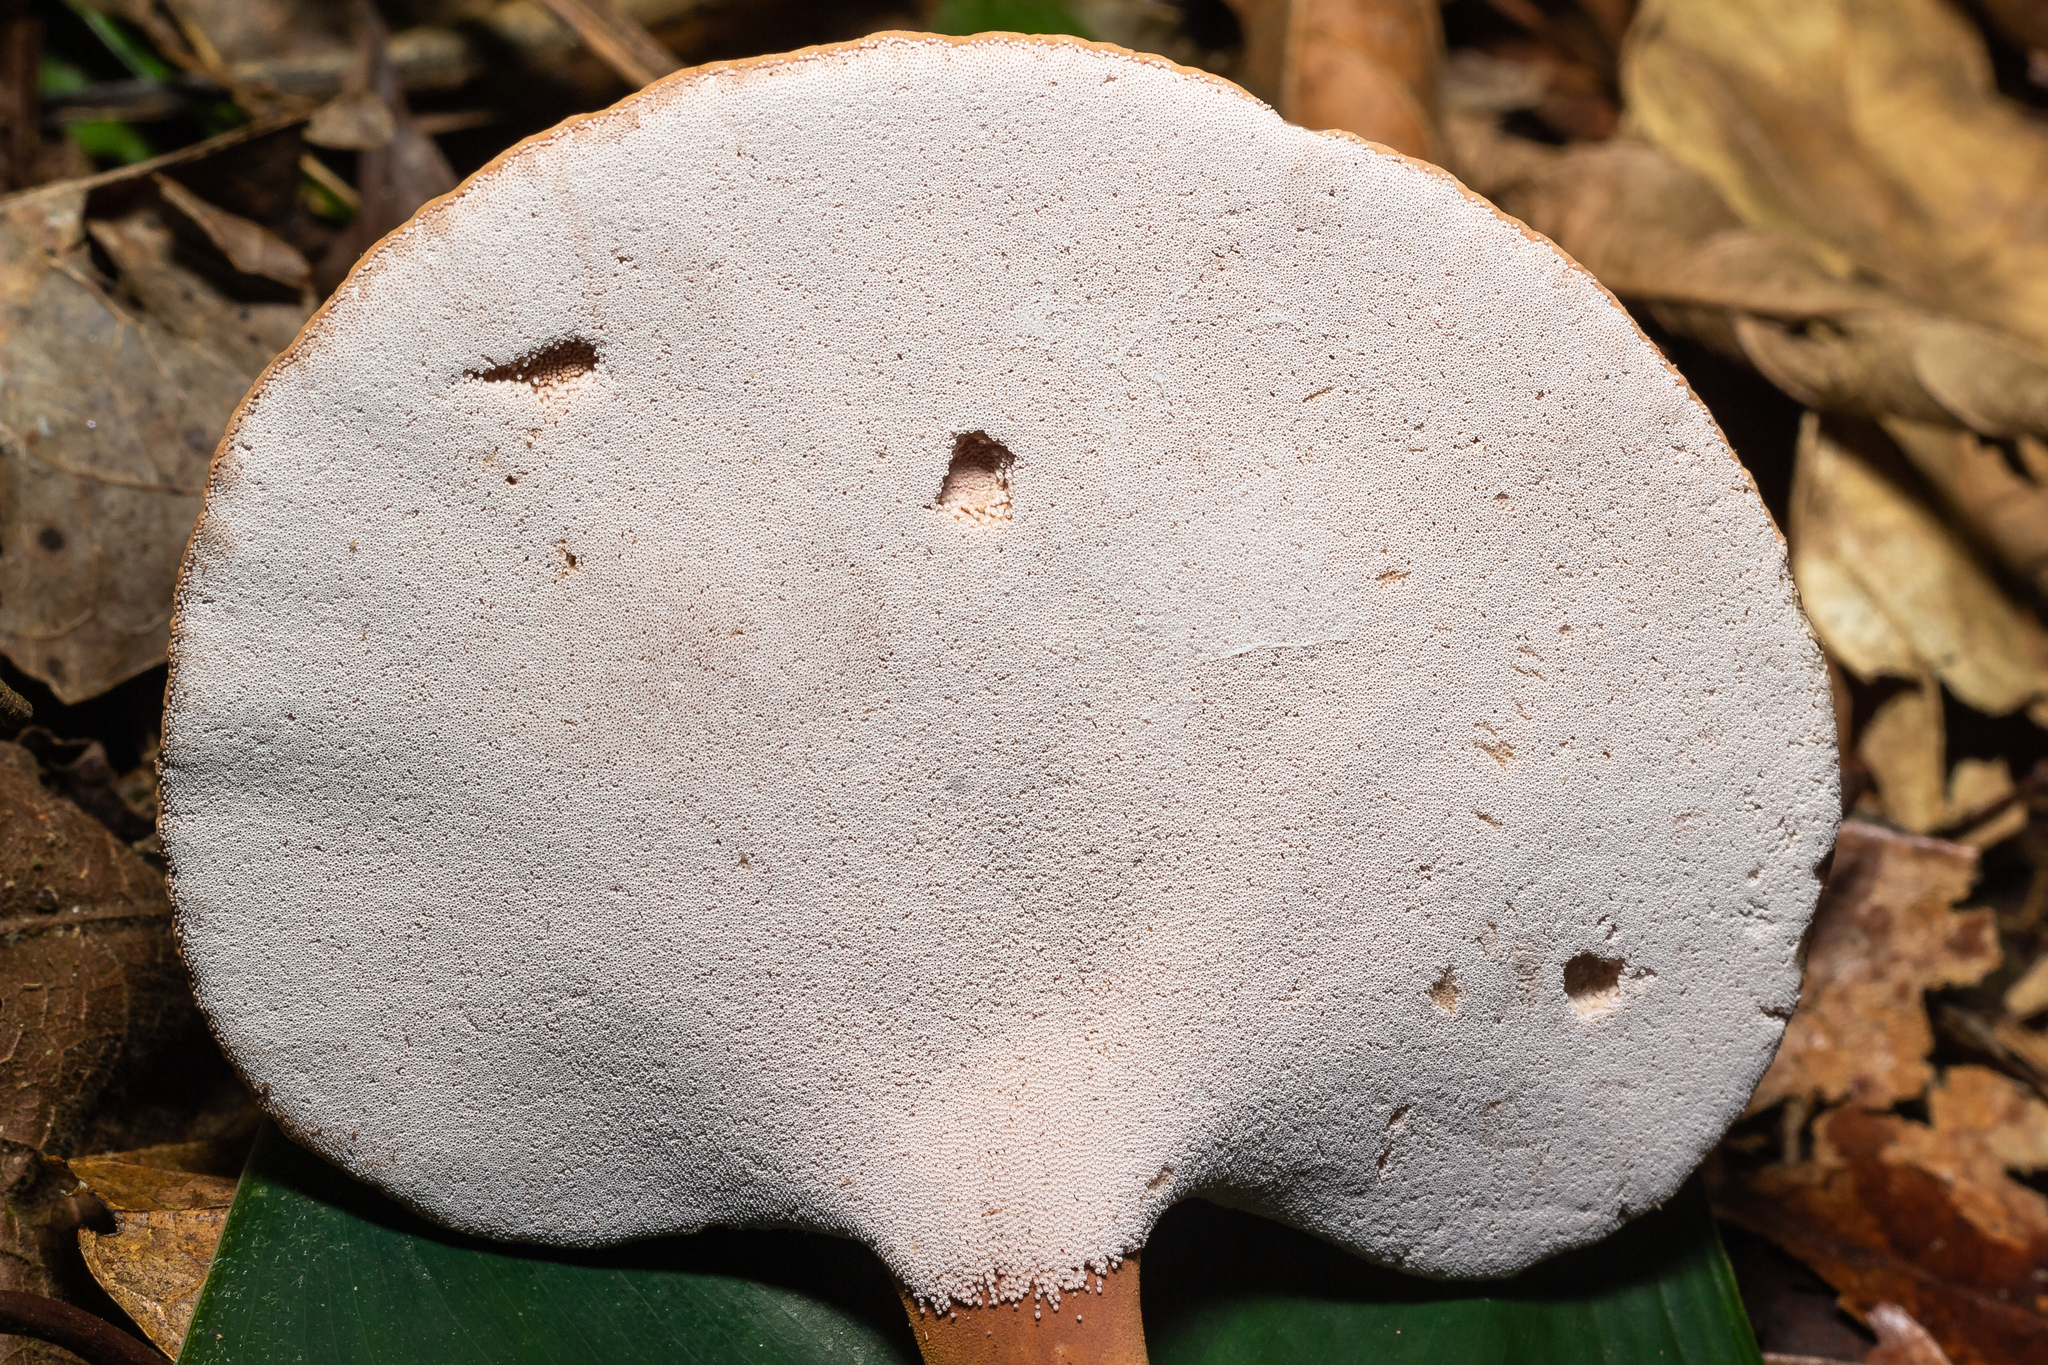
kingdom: Fungi
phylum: Basidiomycota
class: Agaricomycetes
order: Agaricales
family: Fistulinaceae
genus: Pseudofistulina
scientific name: Pseudofistulina radicata
